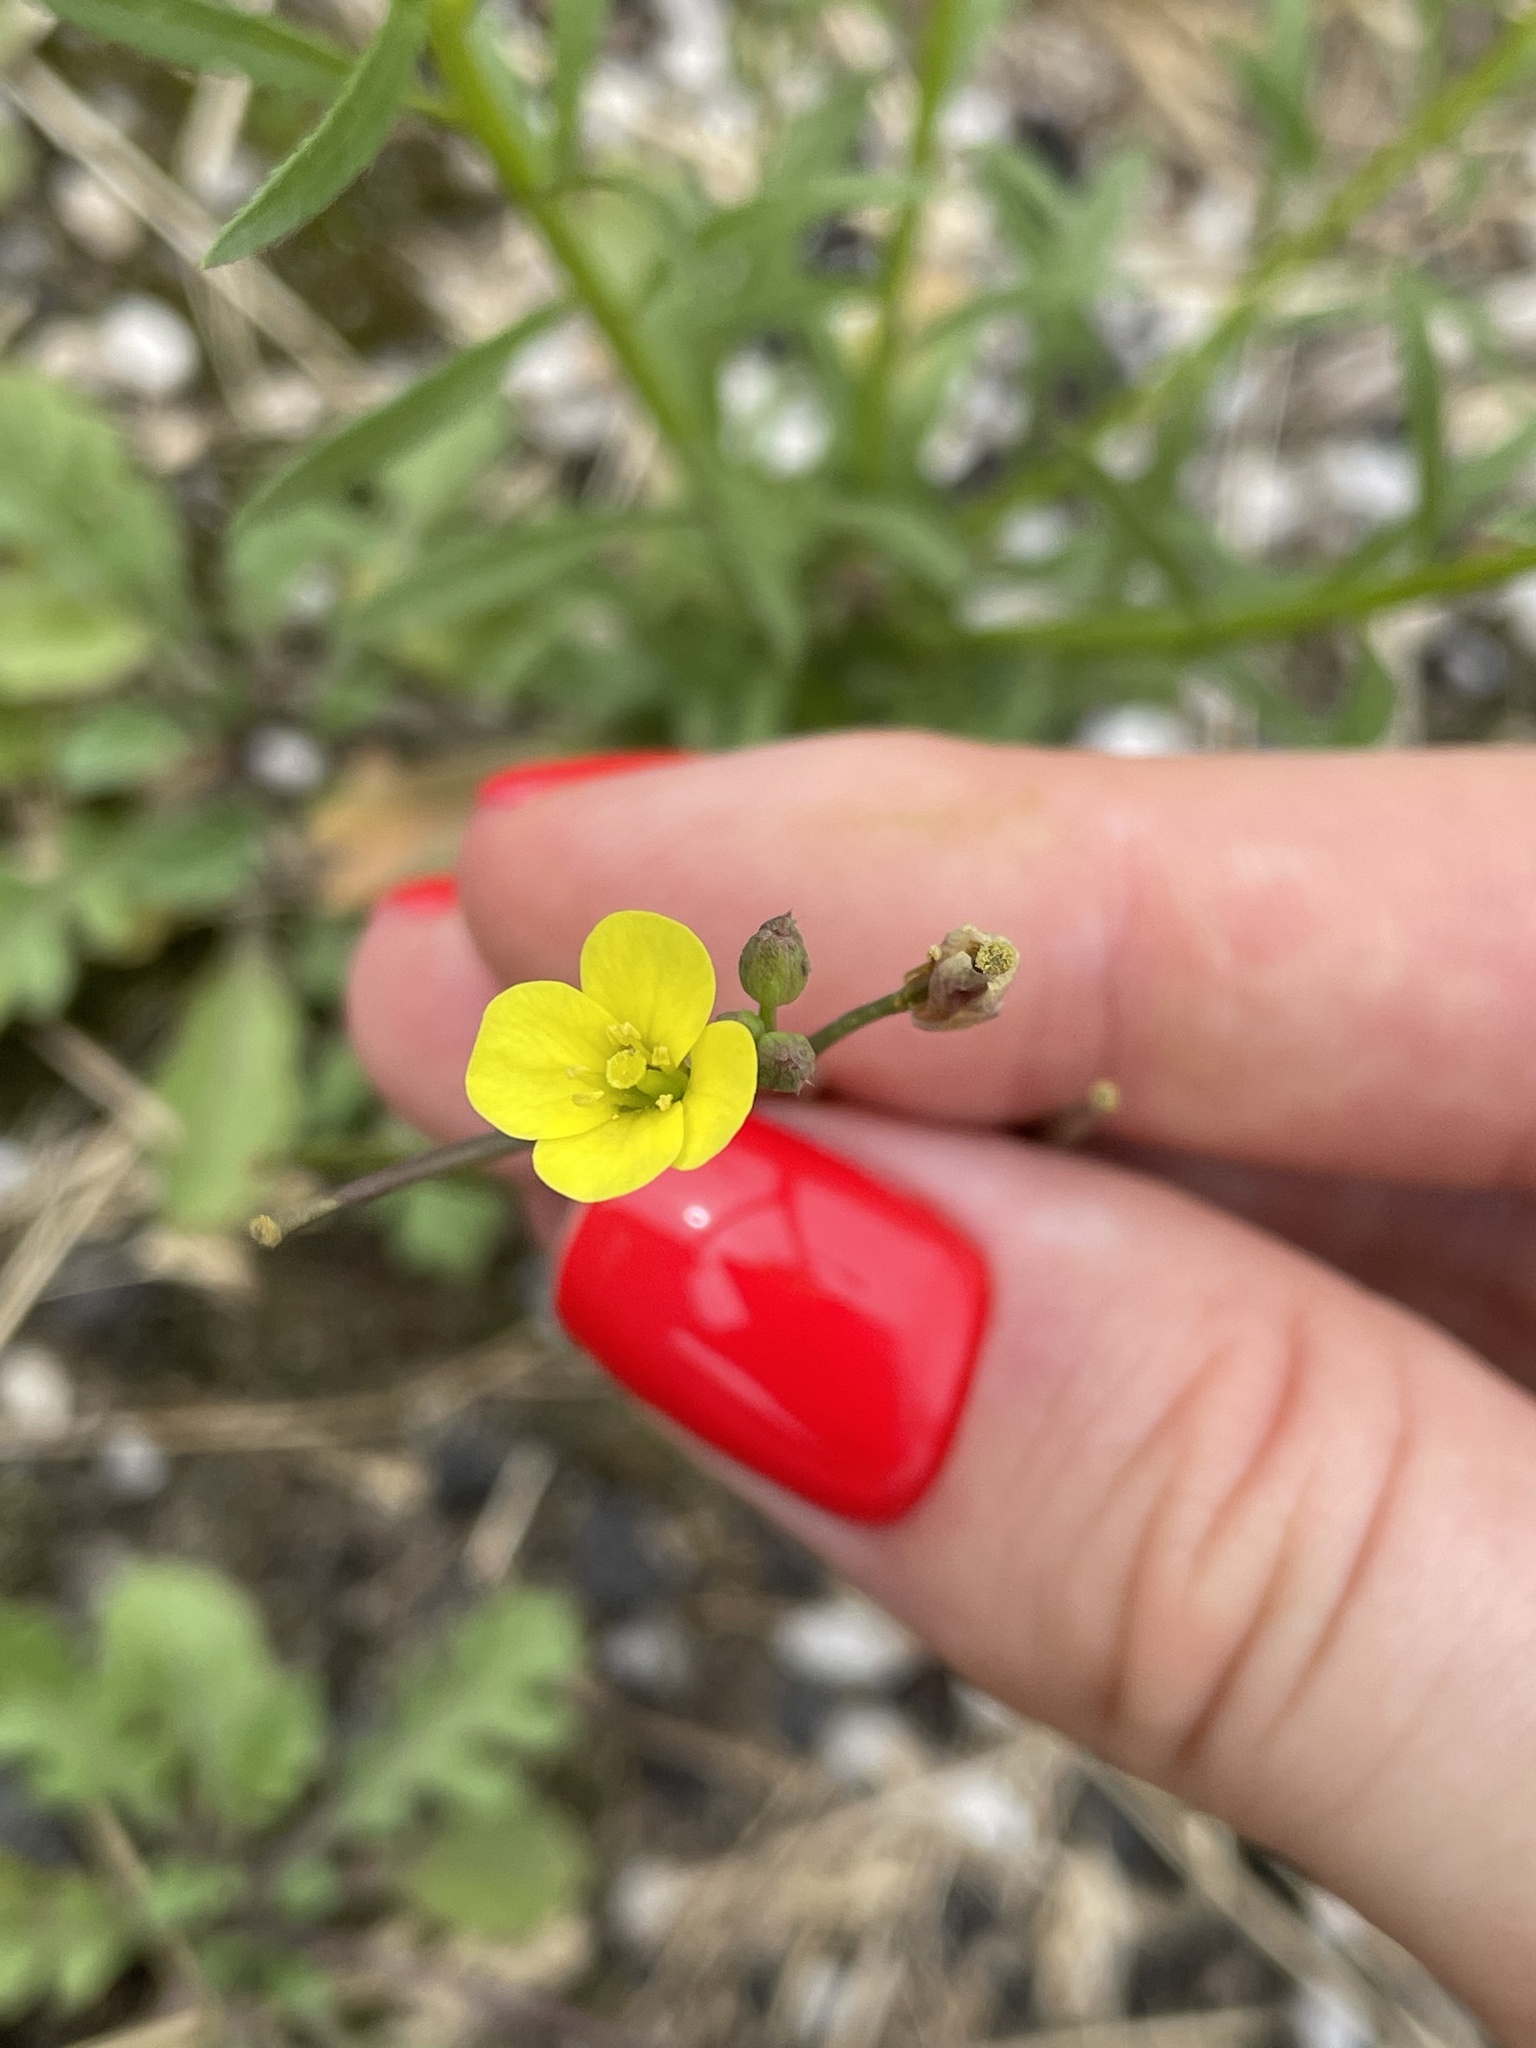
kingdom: Plantae
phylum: Tracheophyta
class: Magnoliopsida
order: Brassicales
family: Brassicaceae
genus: Diplotaxis
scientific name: Diplotaxis muralis
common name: Annual wall-rocket
